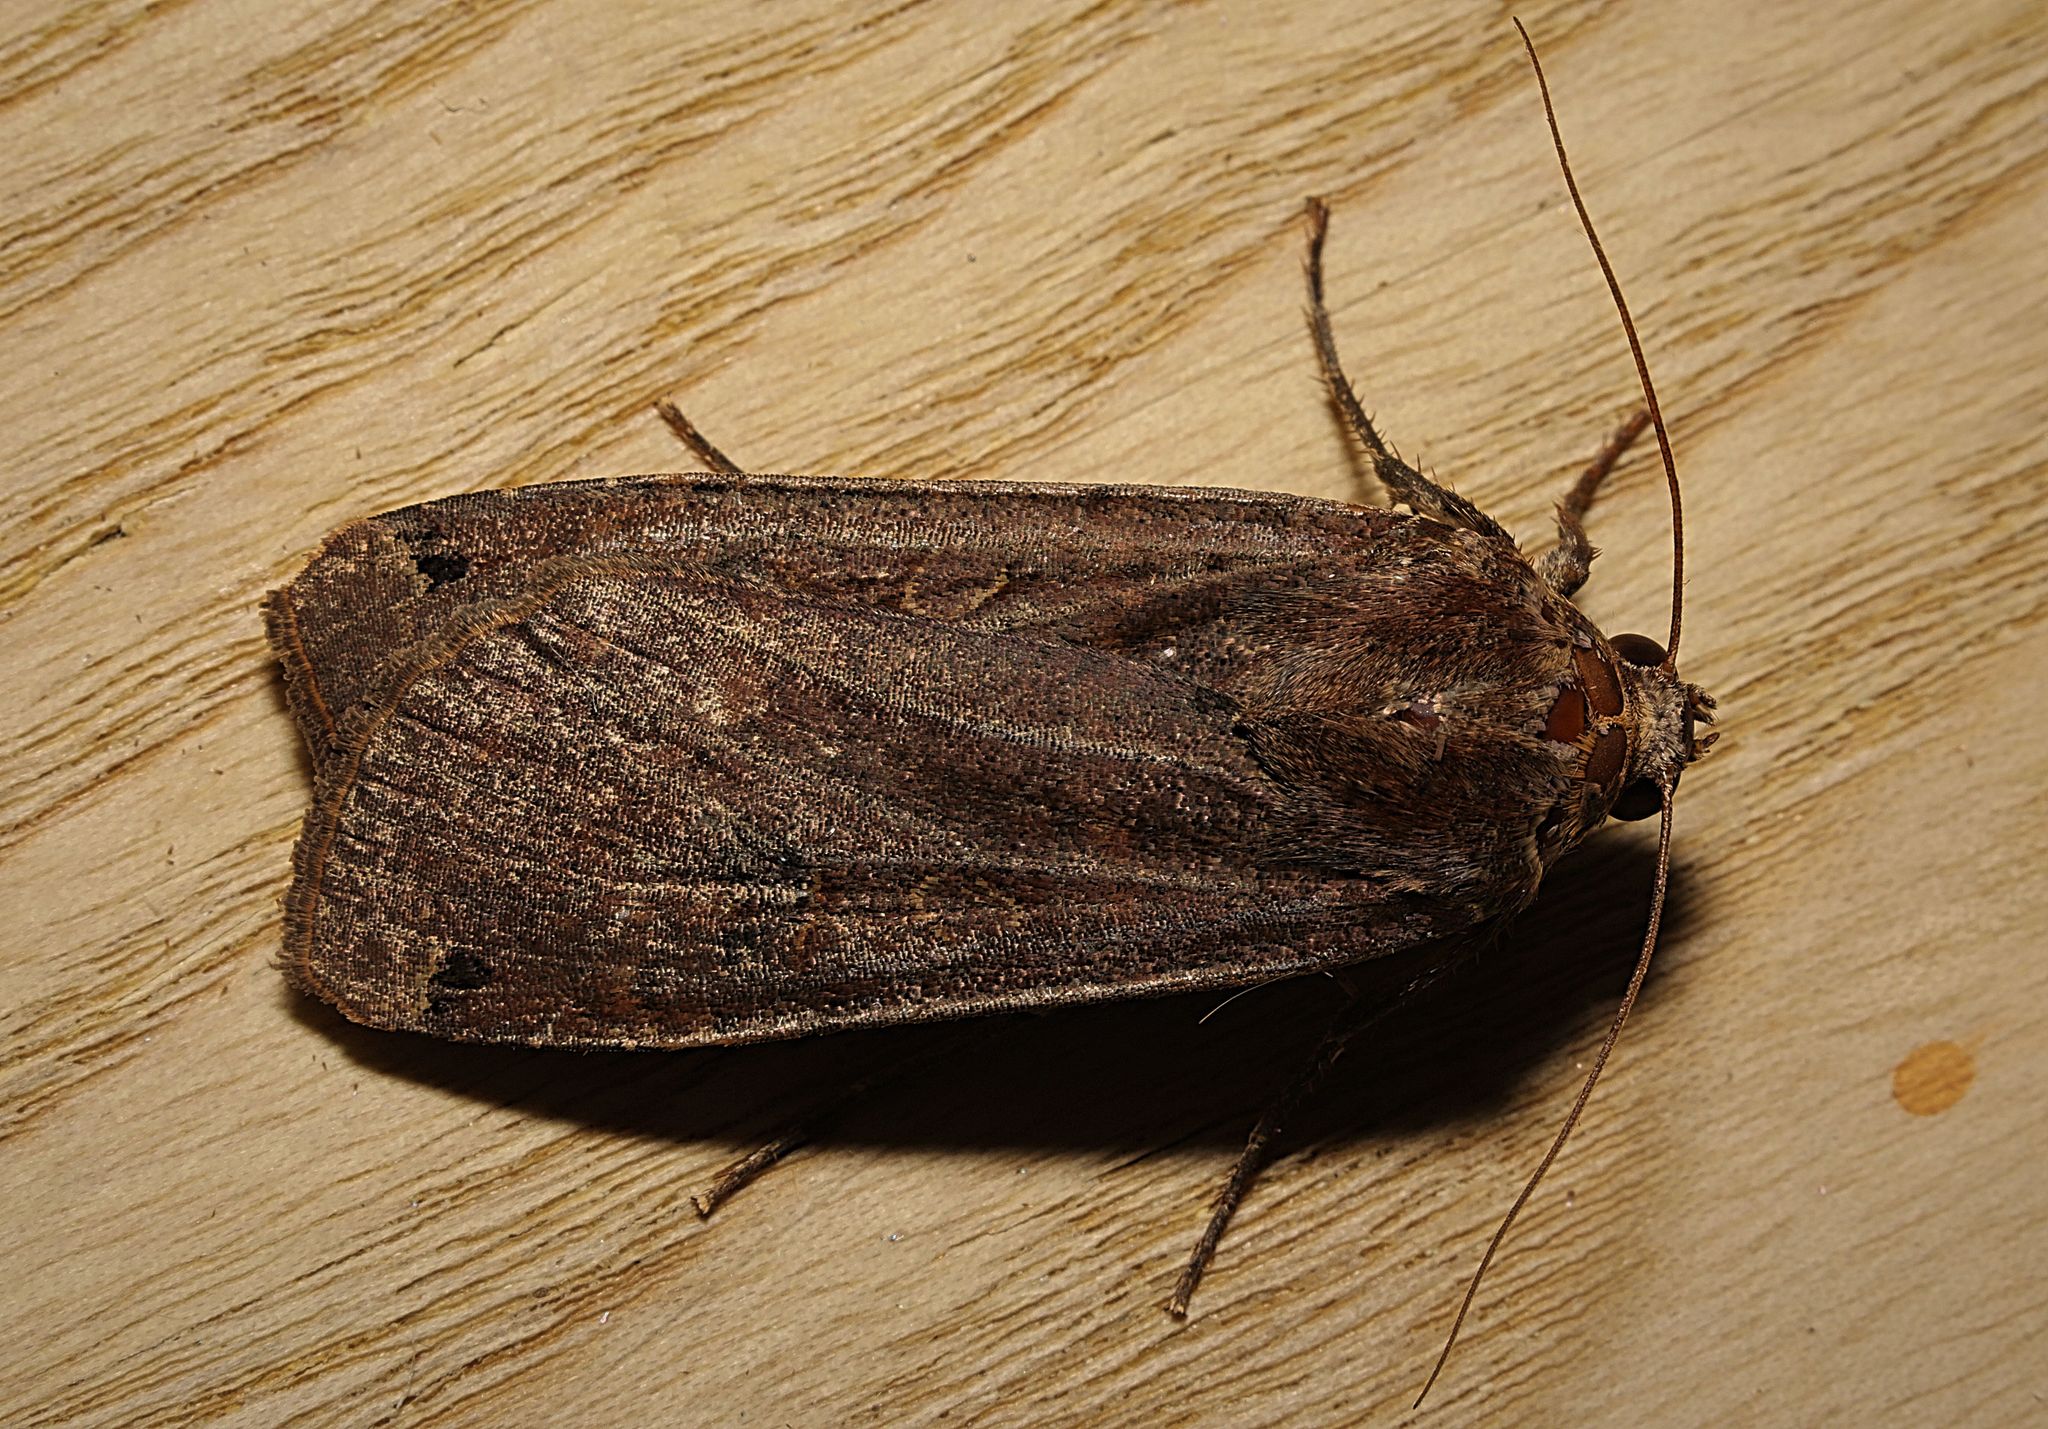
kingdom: Animalia
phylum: Arthropoda
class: Insecta
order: Lepidoptera
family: Noctuidae
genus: Noctua
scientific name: Noctua pronuba
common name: Large yellow underwing
